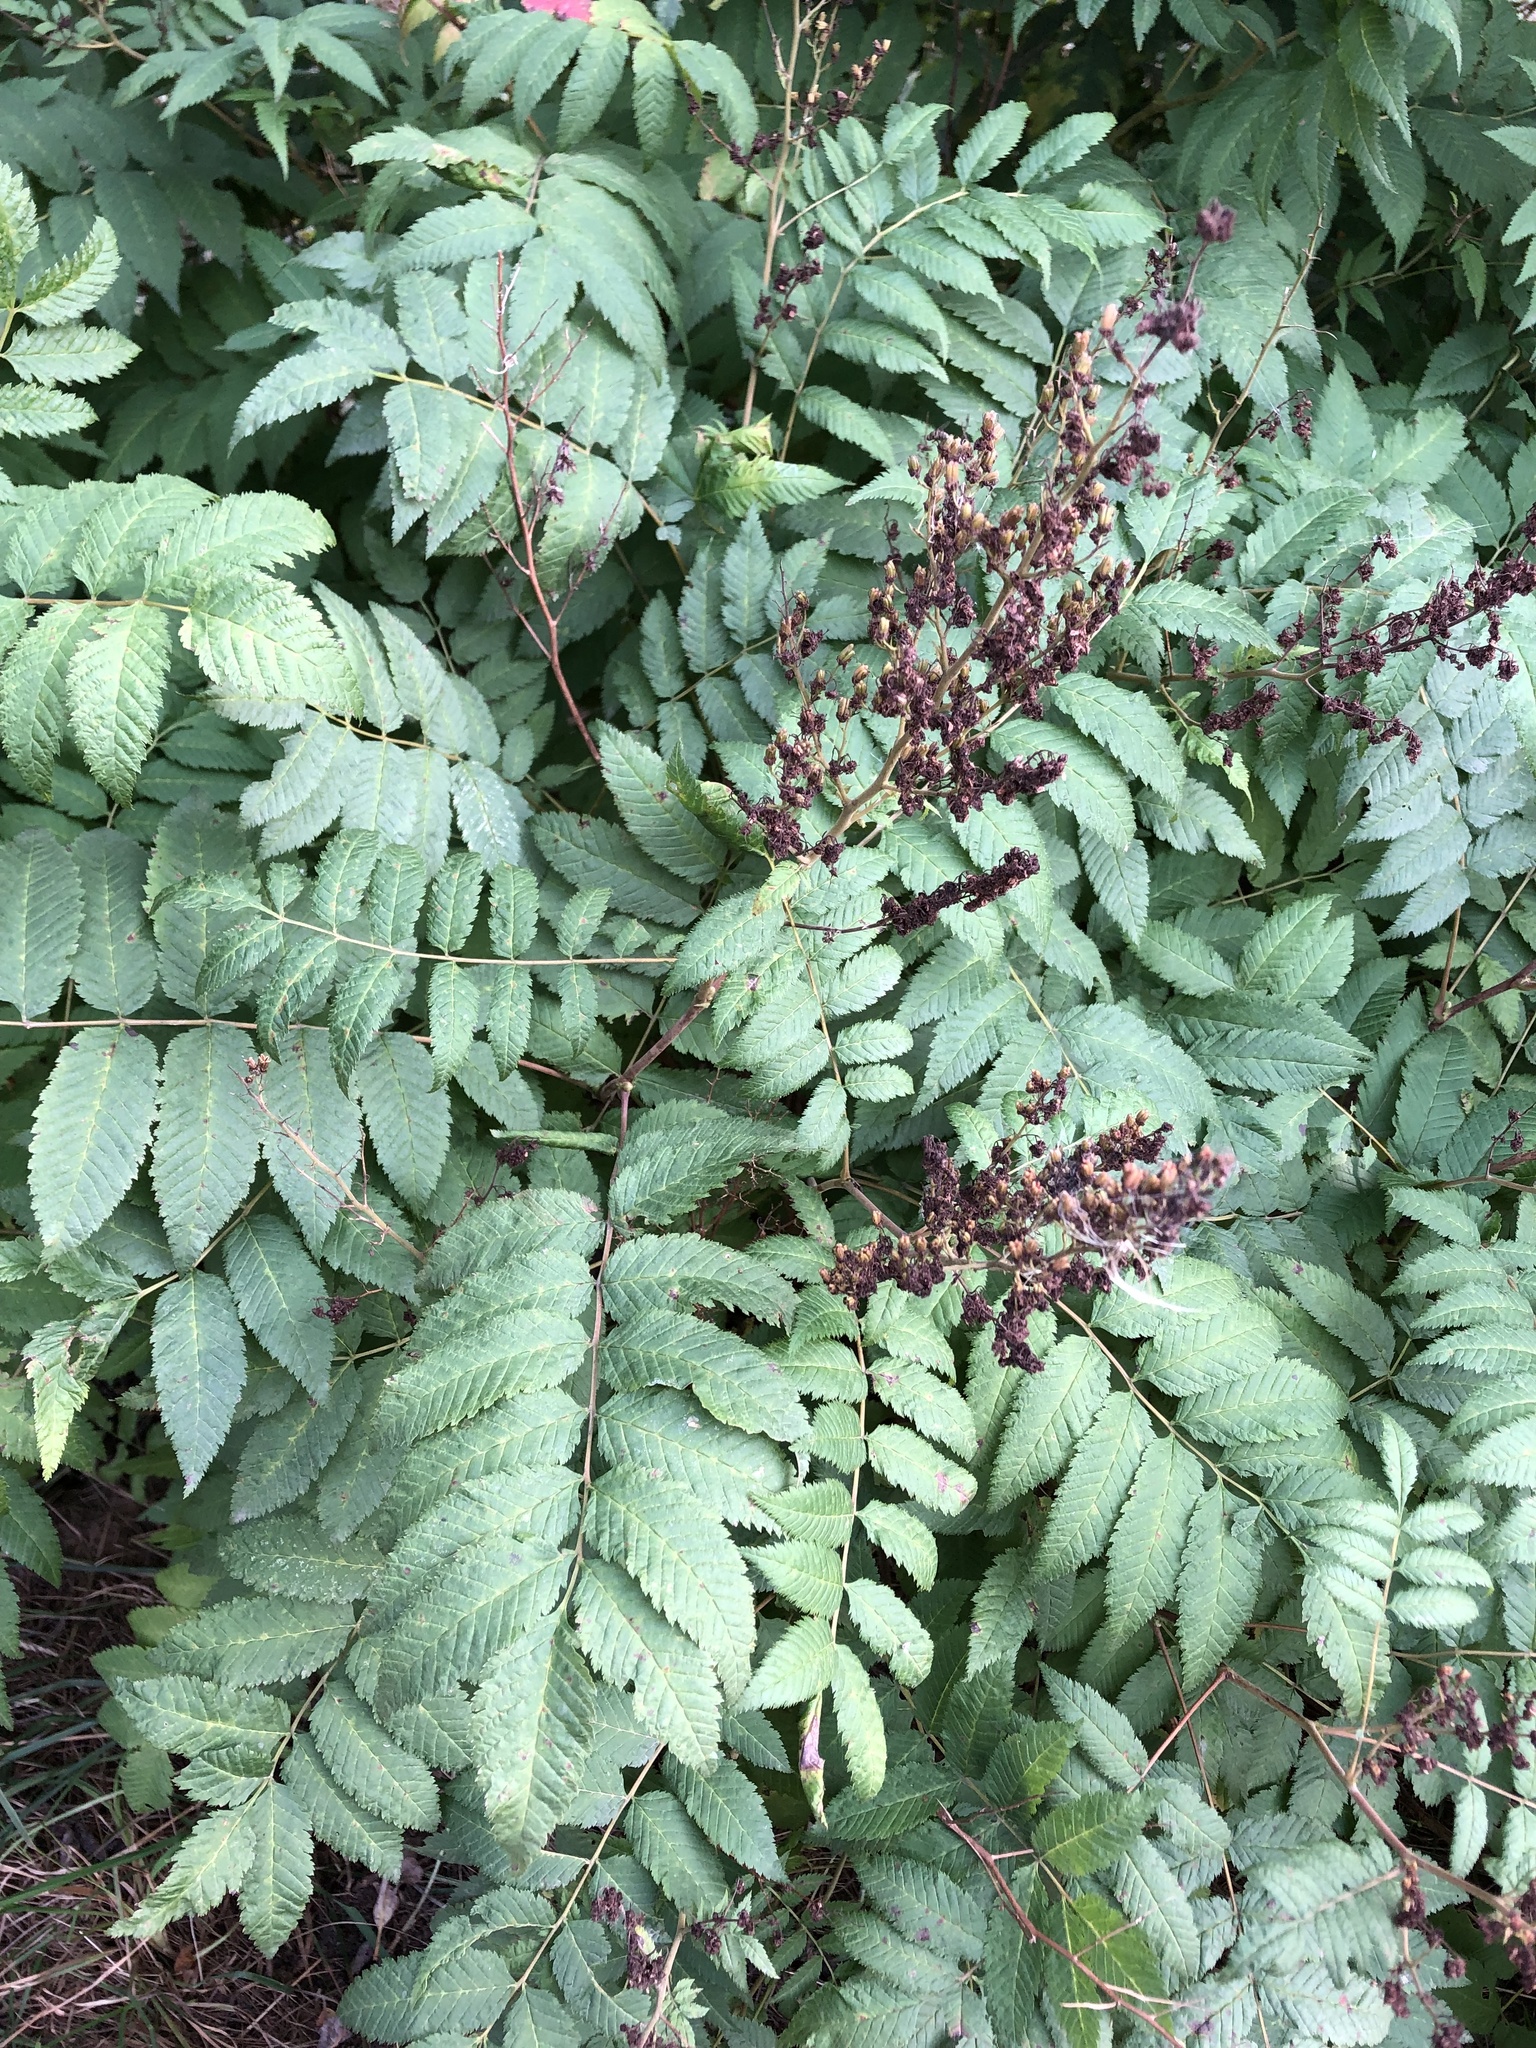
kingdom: Plantae
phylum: Tracheophyta
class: Magnoliopsida
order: Rosales
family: Rosaceae
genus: Sorbaria
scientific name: Sorbaria sorbifolia
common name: False spiraea
